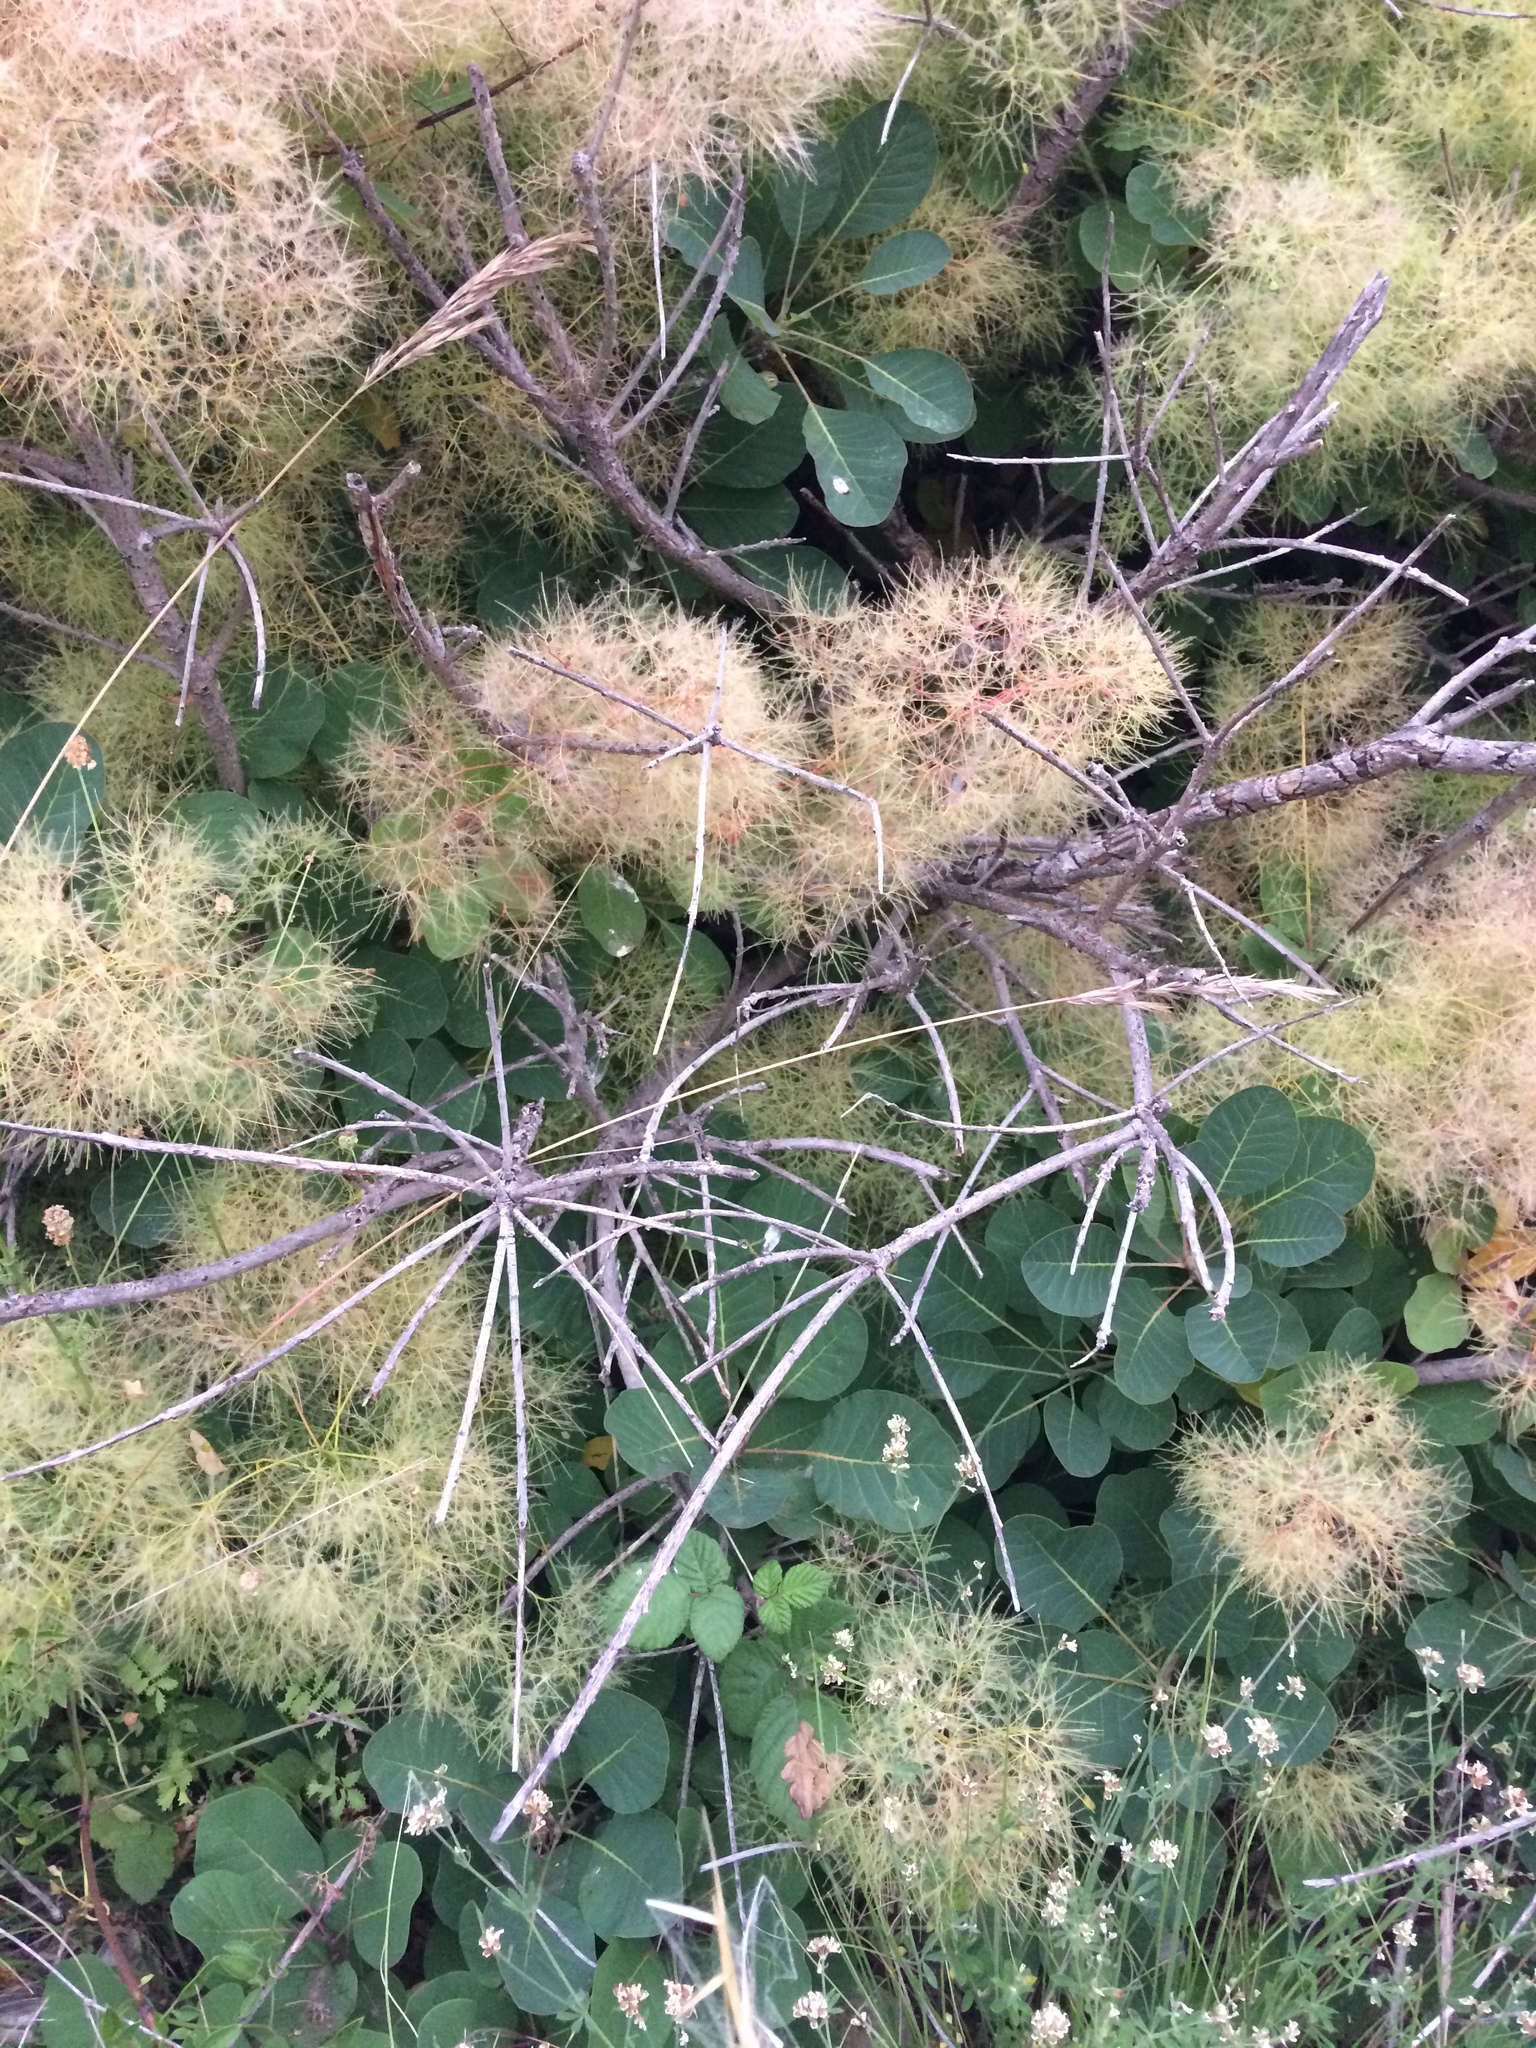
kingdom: Plantae
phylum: Tracheophyta
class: Magnoliopsida
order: Sapindales
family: Anacardiaceae
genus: Cotinus
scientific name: Cotinus coggygria
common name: Smoke-tree
